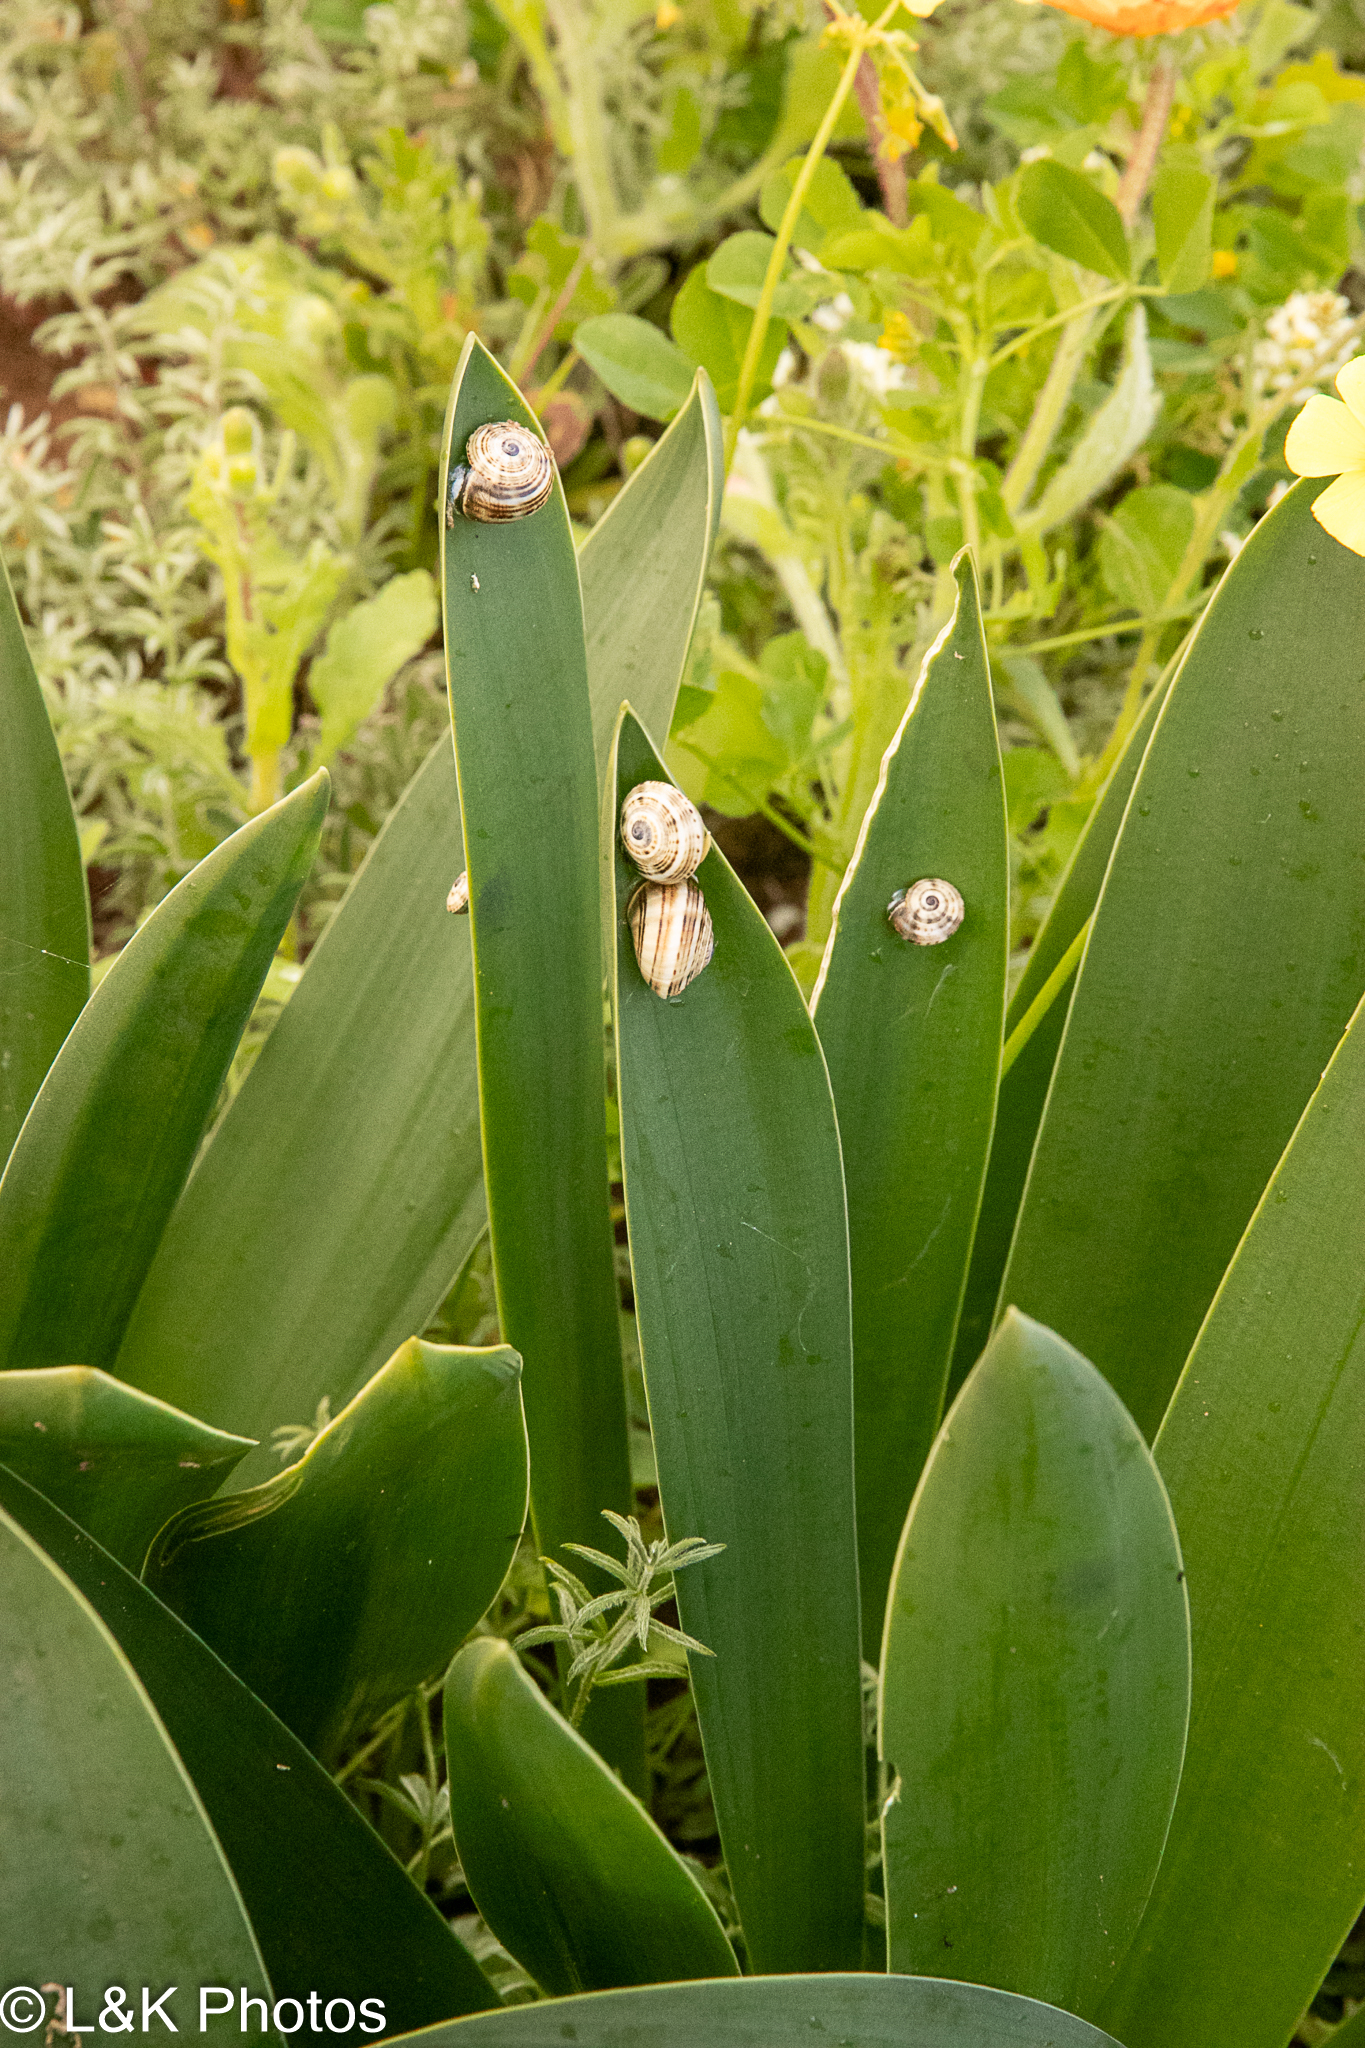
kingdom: Animalia
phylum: Mollusca
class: Gastropoda
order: Stylommatophora
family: Helicidae
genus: Theba
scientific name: Theba pisana
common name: White snail
